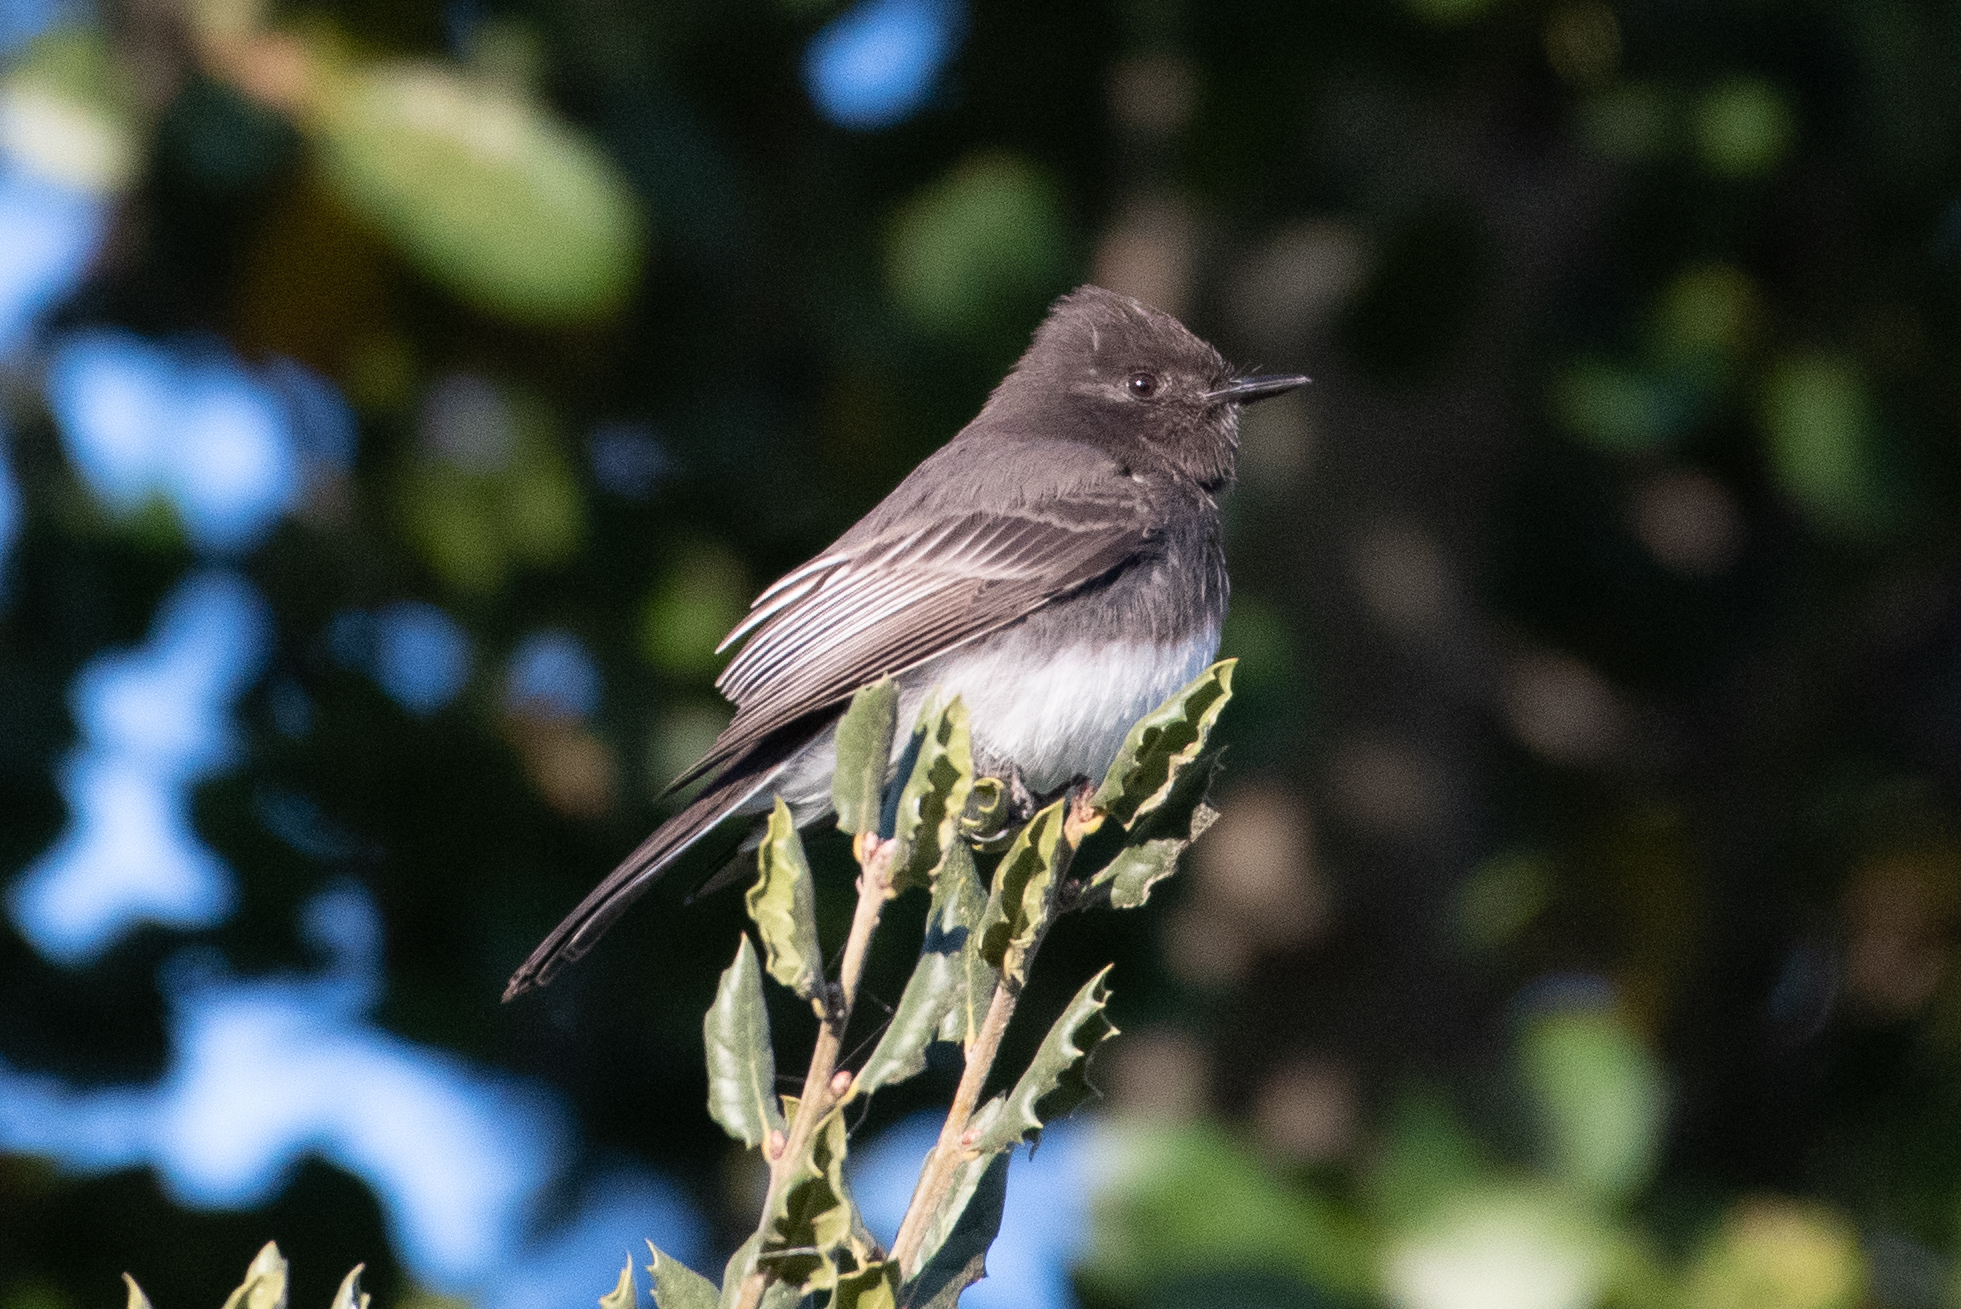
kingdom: Animalia
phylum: Chordata
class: Aves
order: Passeriformes
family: Tyrannidae
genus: Sayornis
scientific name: Sayornis nigricans
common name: Black phoebe
